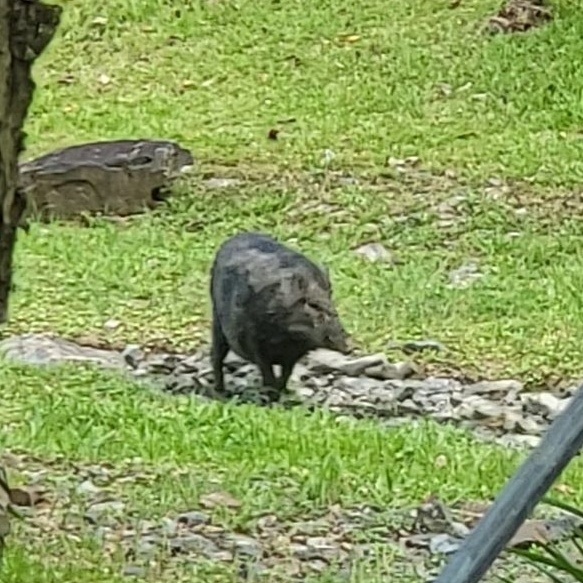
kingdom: Animalia
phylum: Chordata
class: Mammalia
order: Artiodactyla
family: Suidae
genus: Sus
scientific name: Sus scrofa
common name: Wild boar
